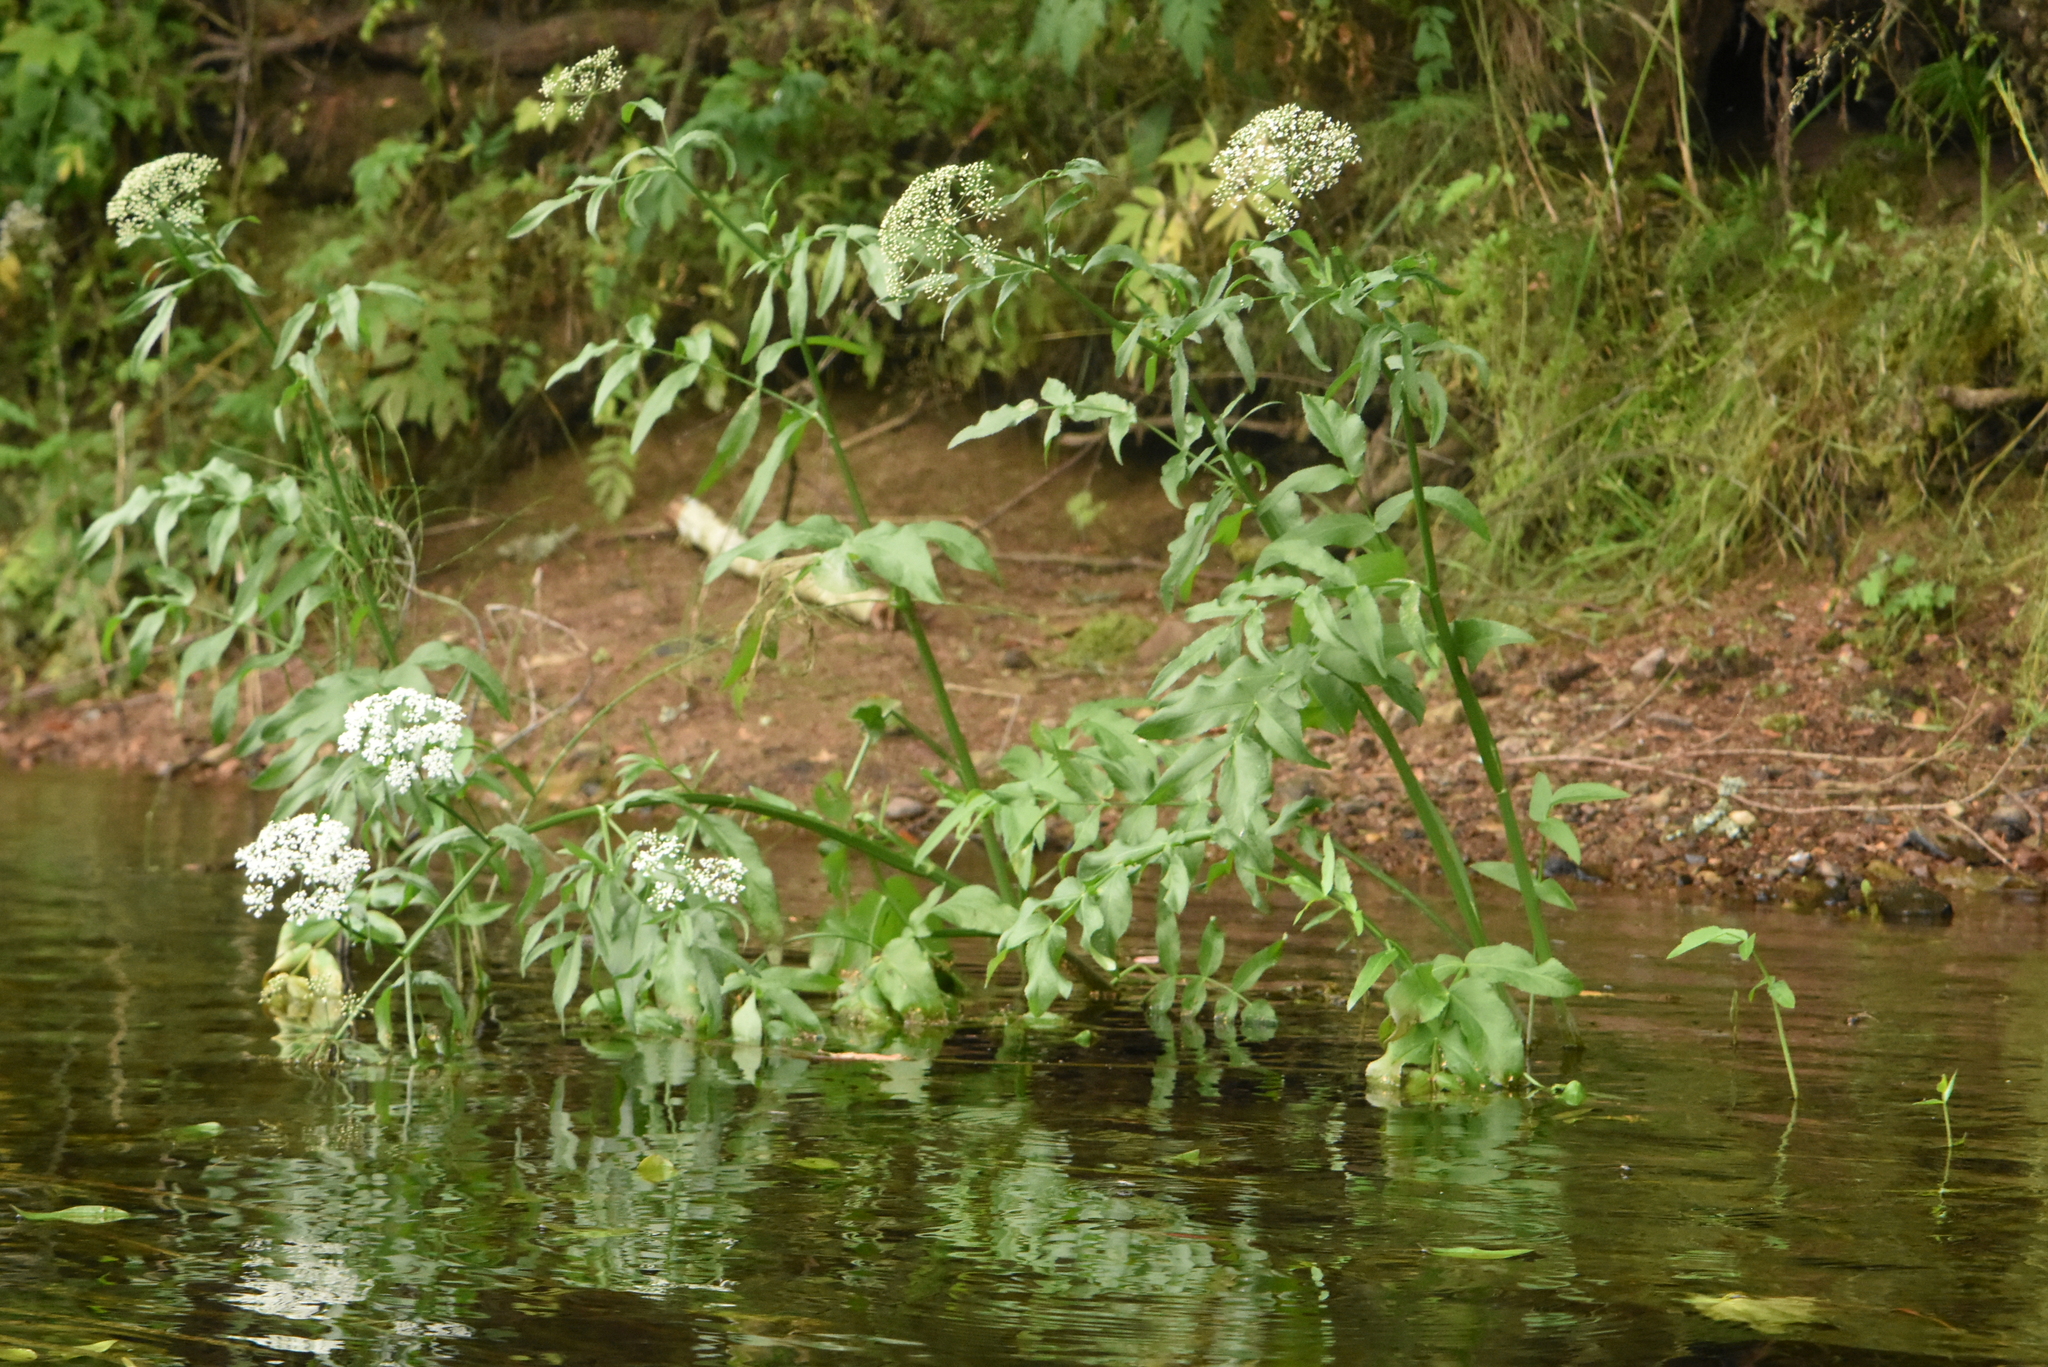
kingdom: Plantae
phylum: Tracheophyta
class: Magnoliopsida
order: Apiales
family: Apiaceae
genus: Sium
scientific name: Sium latifolium
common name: Greater water-parsnip
